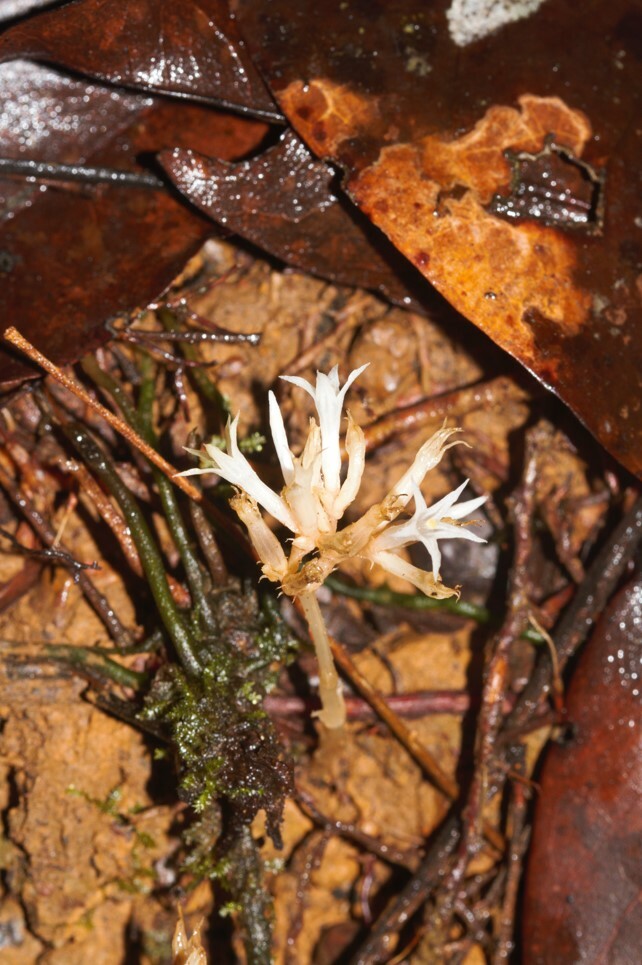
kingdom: Plantae
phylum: Tracheophyta
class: Magnoliopsida
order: Gentianales
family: Gentianaceae
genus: Voyria
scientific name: Voyria corymbosa
